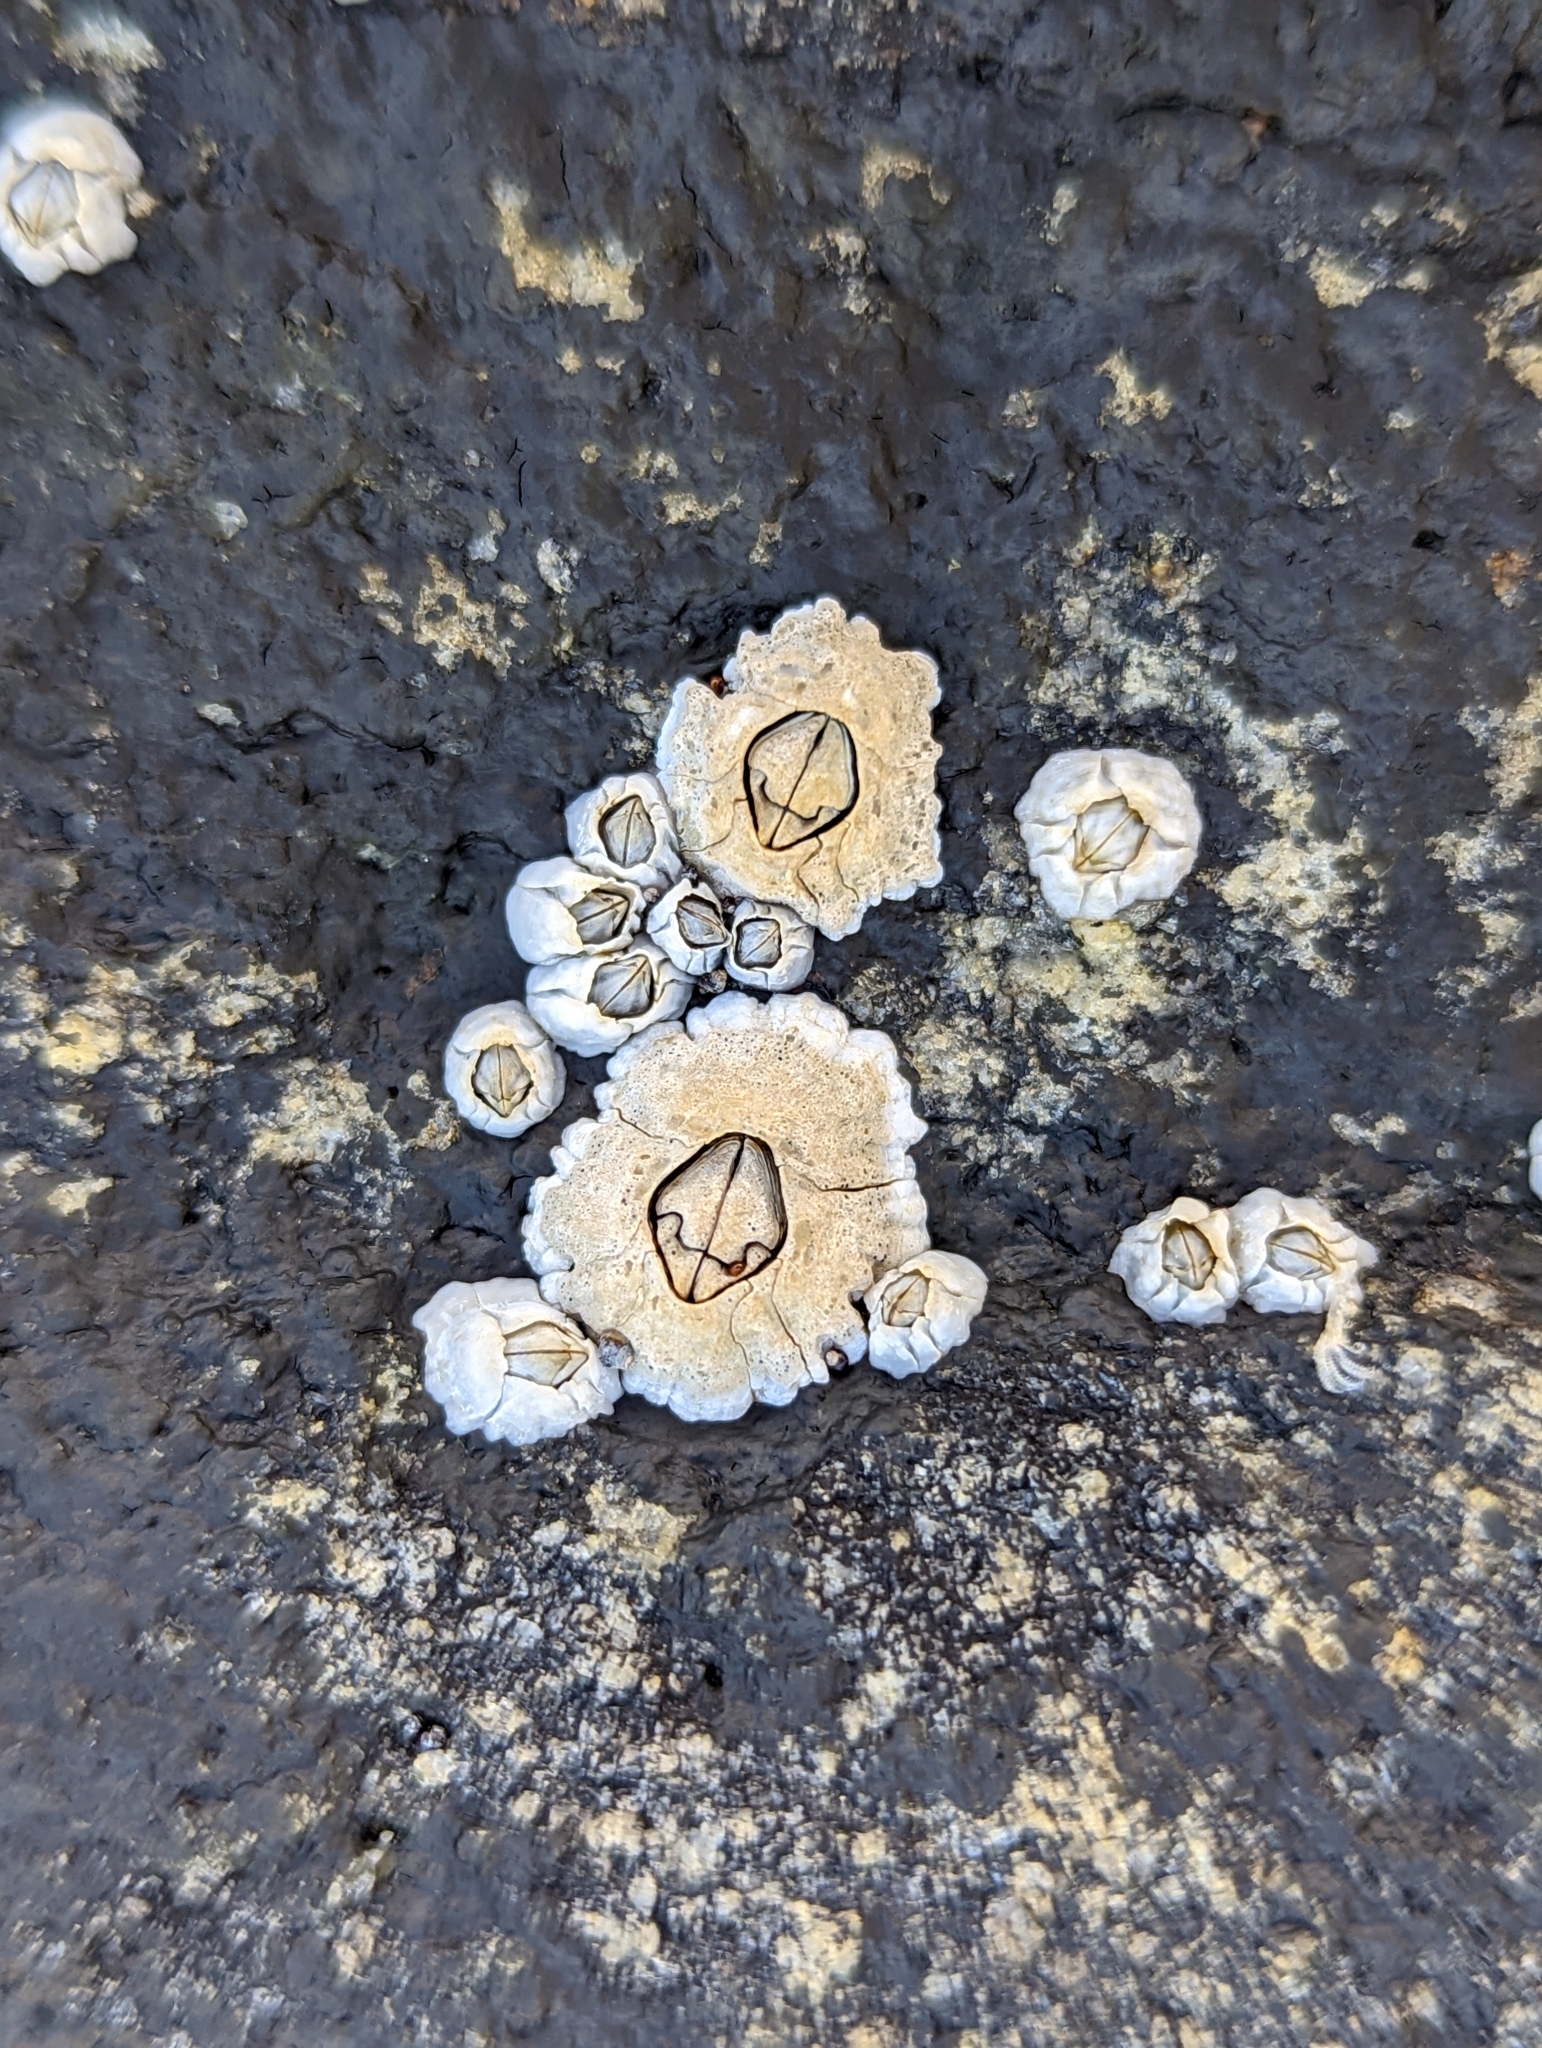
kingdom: Animalia
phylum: Arthropoda
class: Maxillopoda
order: Sessilia
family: Archaeobalanidae
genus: Semibalanus
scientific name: Semibalanus balanoides
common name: Acorn barnacle
